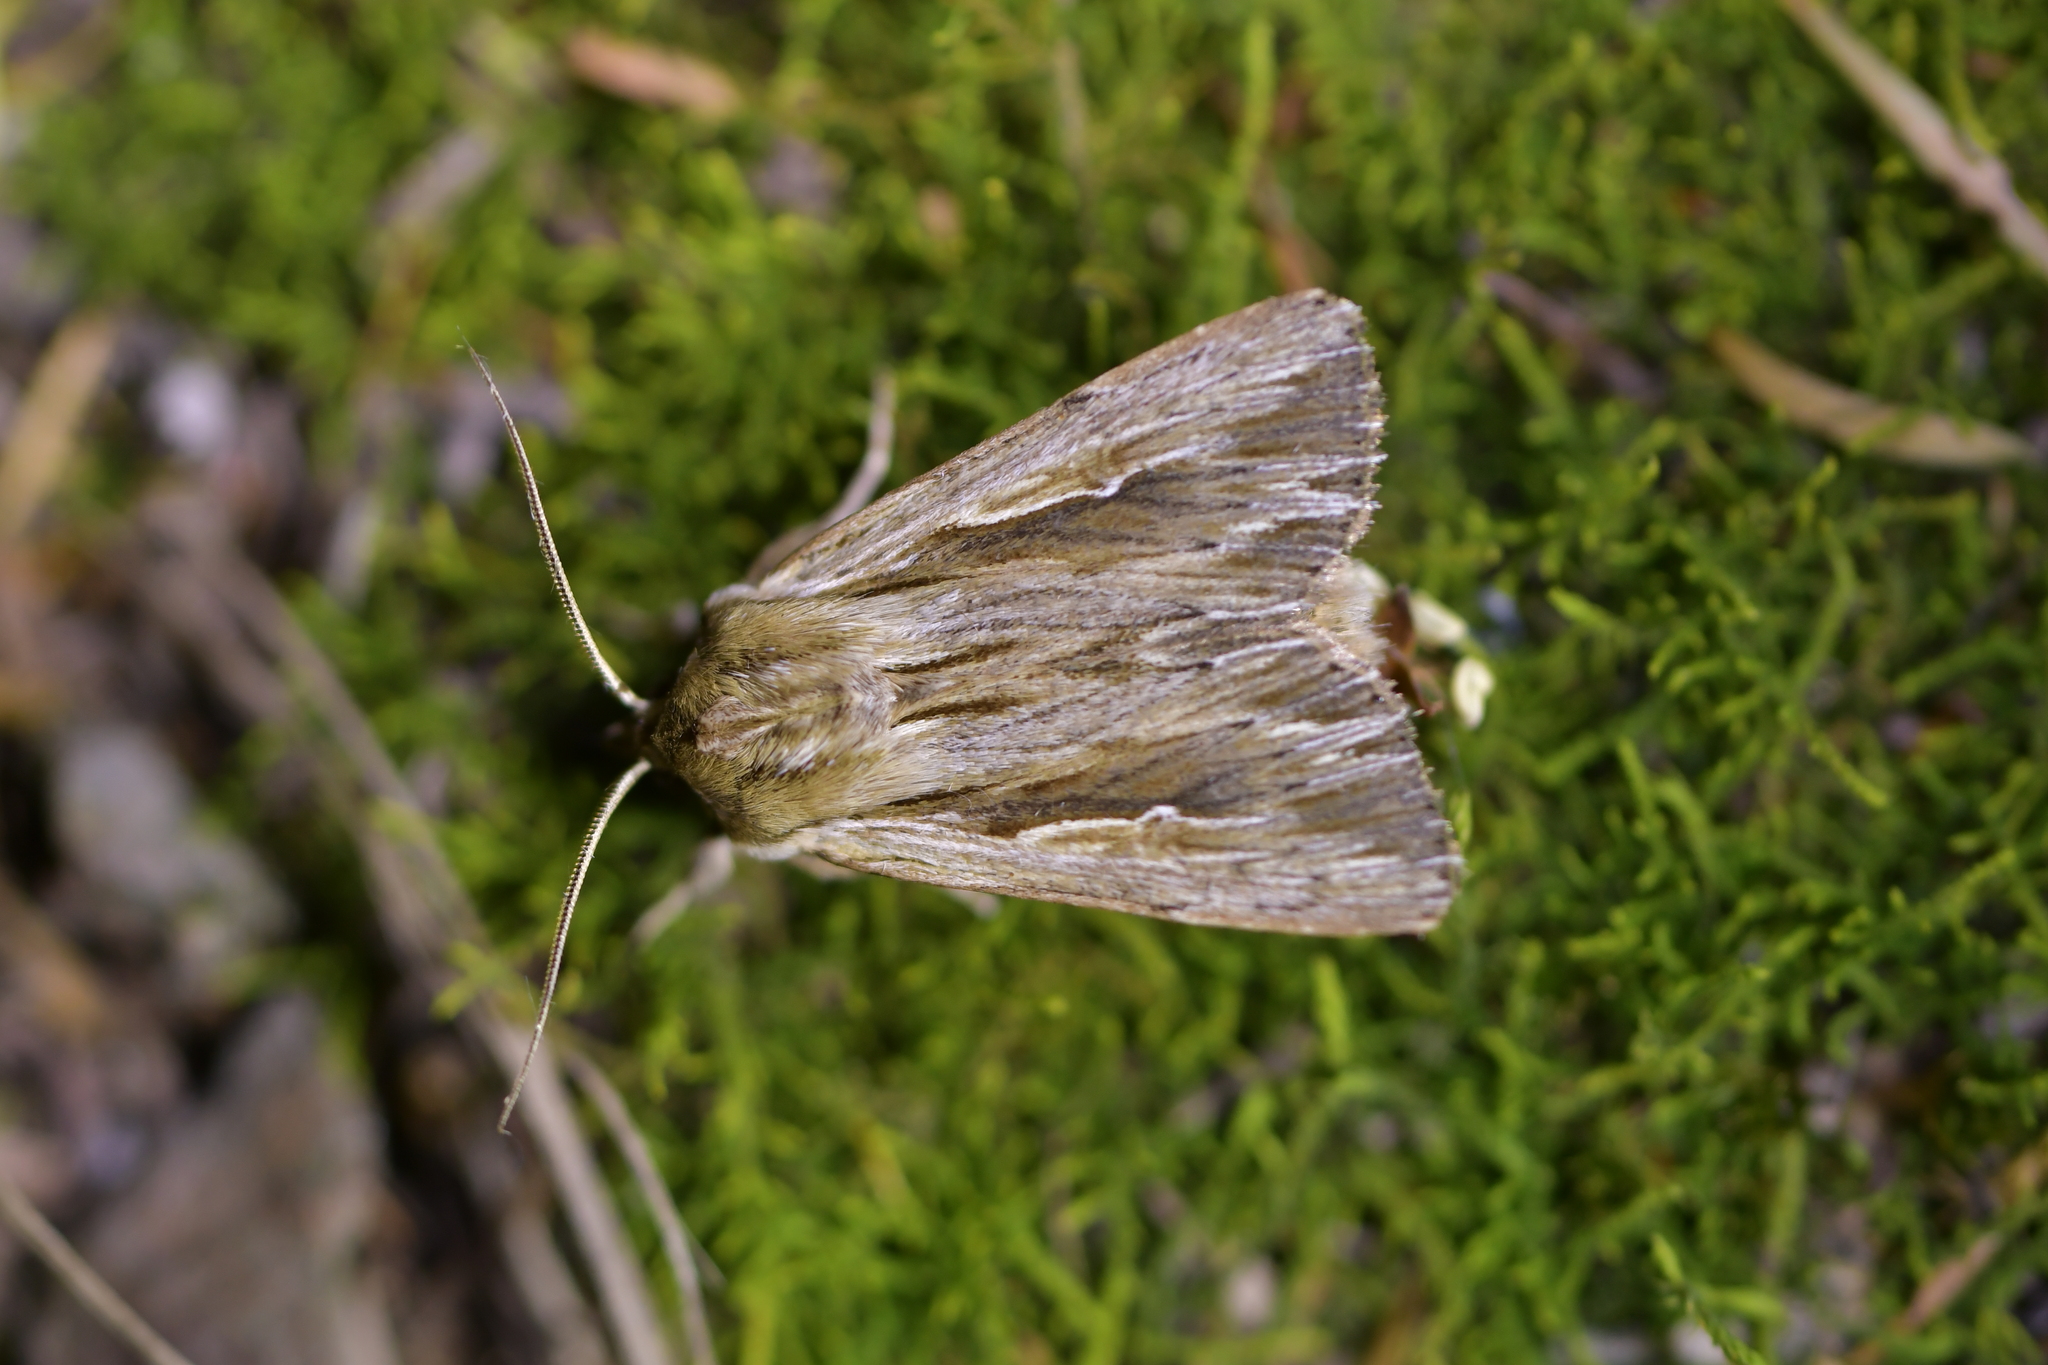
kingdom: Animalia
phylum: Arthropoda
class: Insecta
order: Lepidoptera
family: Noctuidae
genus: Persectania
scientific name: Persectania aversa
